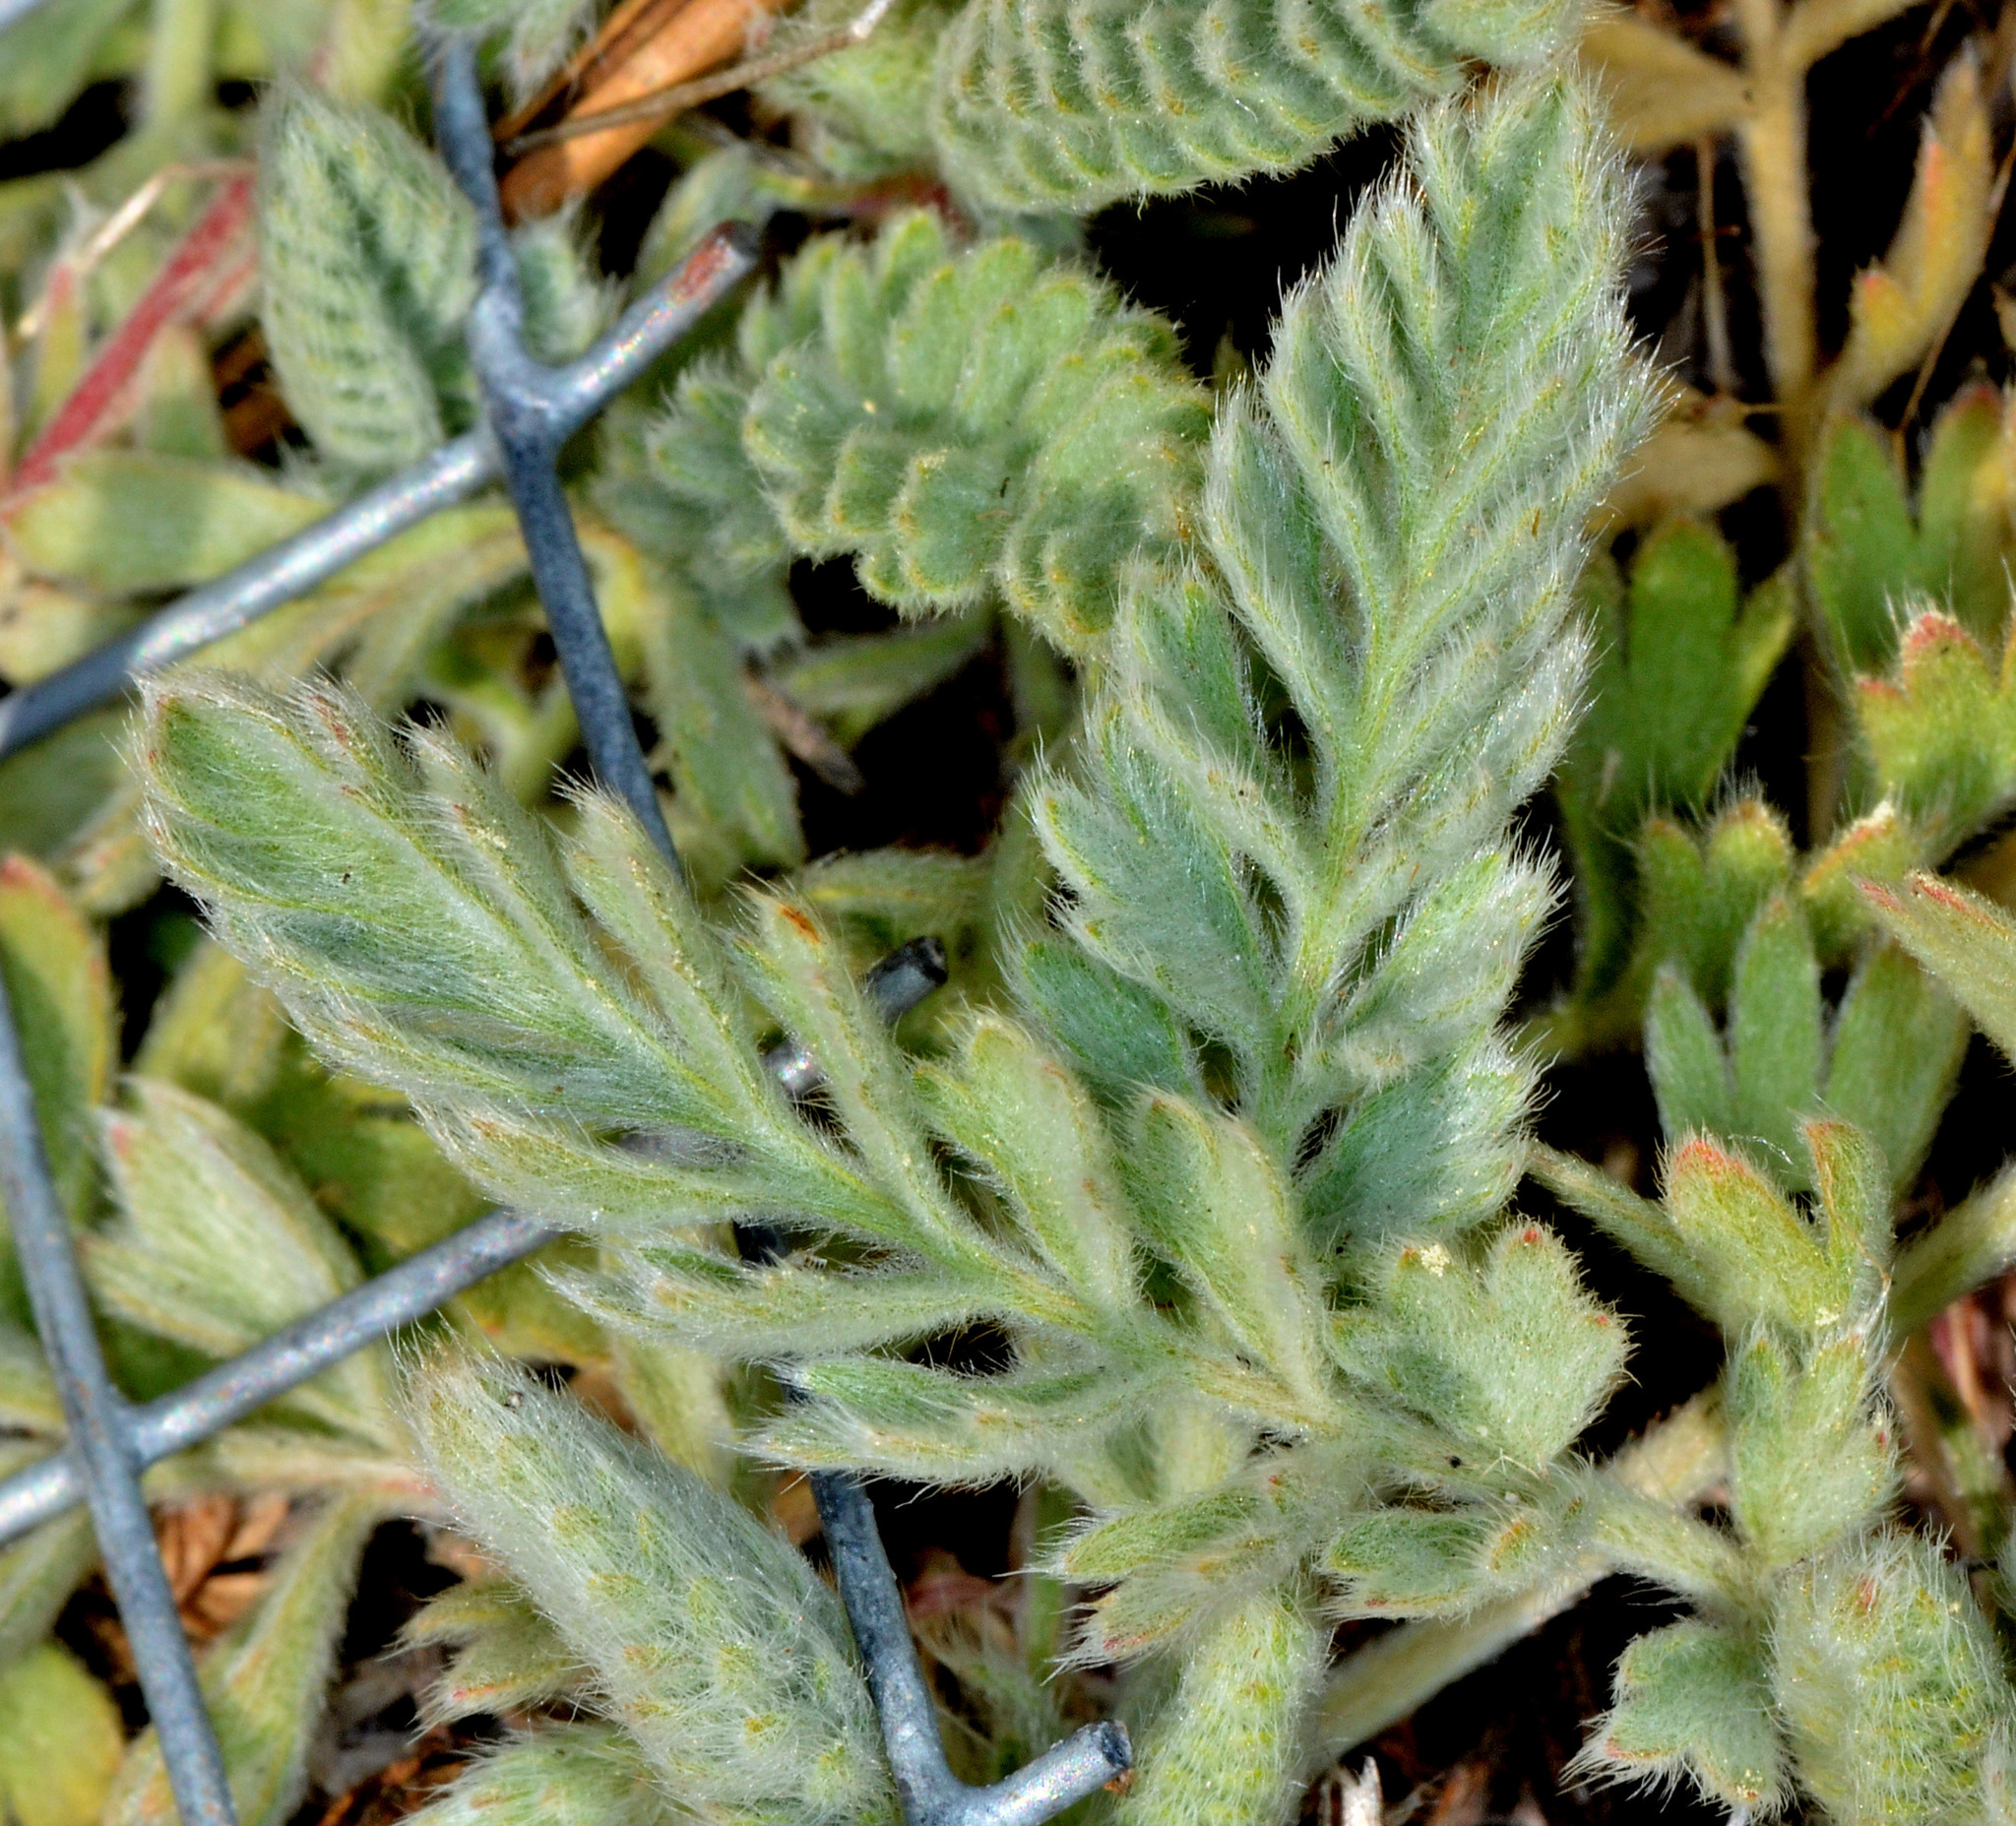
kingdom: Plantae
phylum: Tracheophyta
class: Magnoliopsida
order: Rosales
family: Rosaceae
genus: Potentilla
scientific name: Potentilla bolanderi
